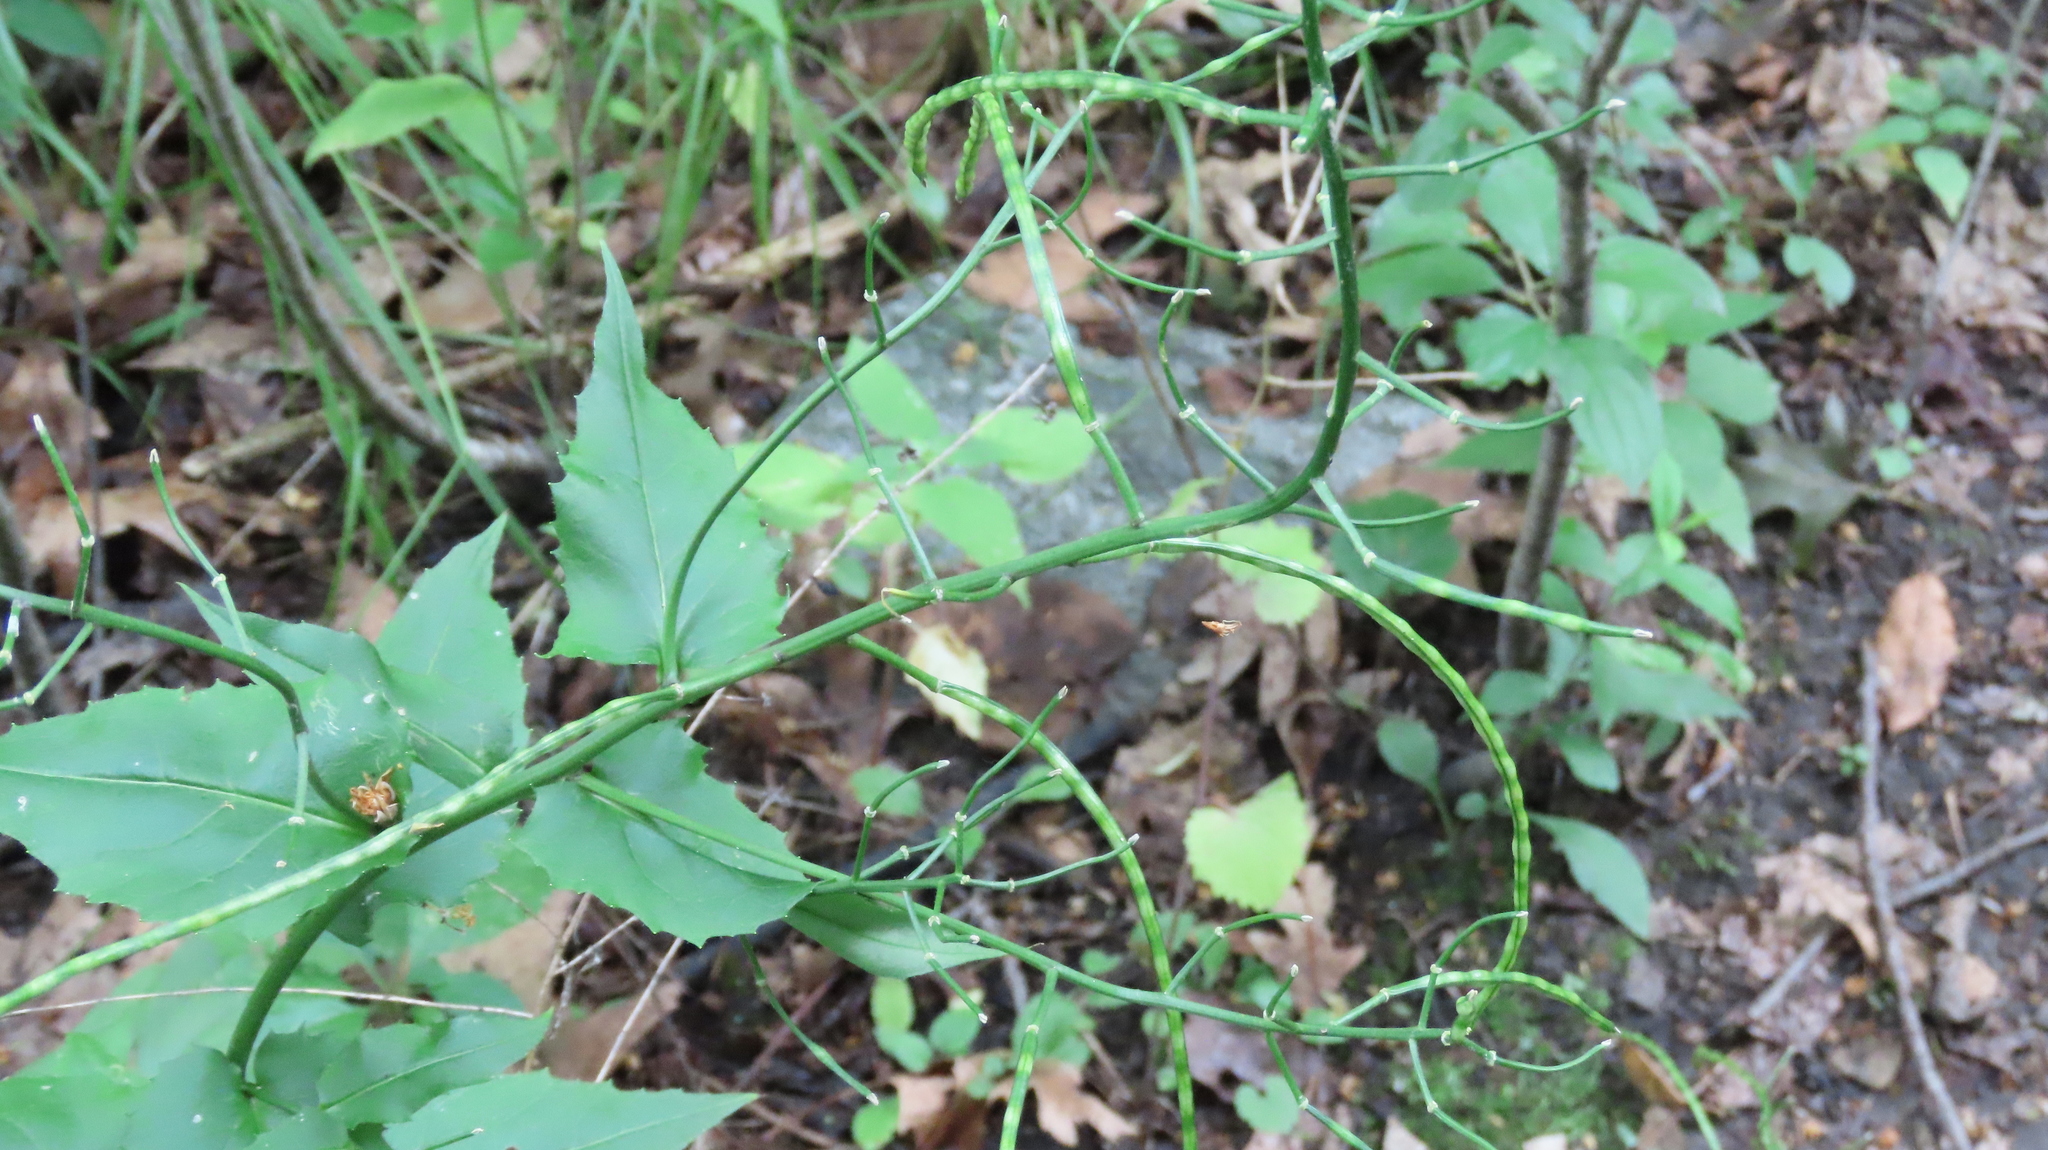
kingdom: Plantae
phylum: Tracheophyta
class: Magnoliopsida
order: Brassicales
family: Brassicaceae
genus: Hesperis
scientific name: Hesperis matronalis
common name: Dame's-violet
